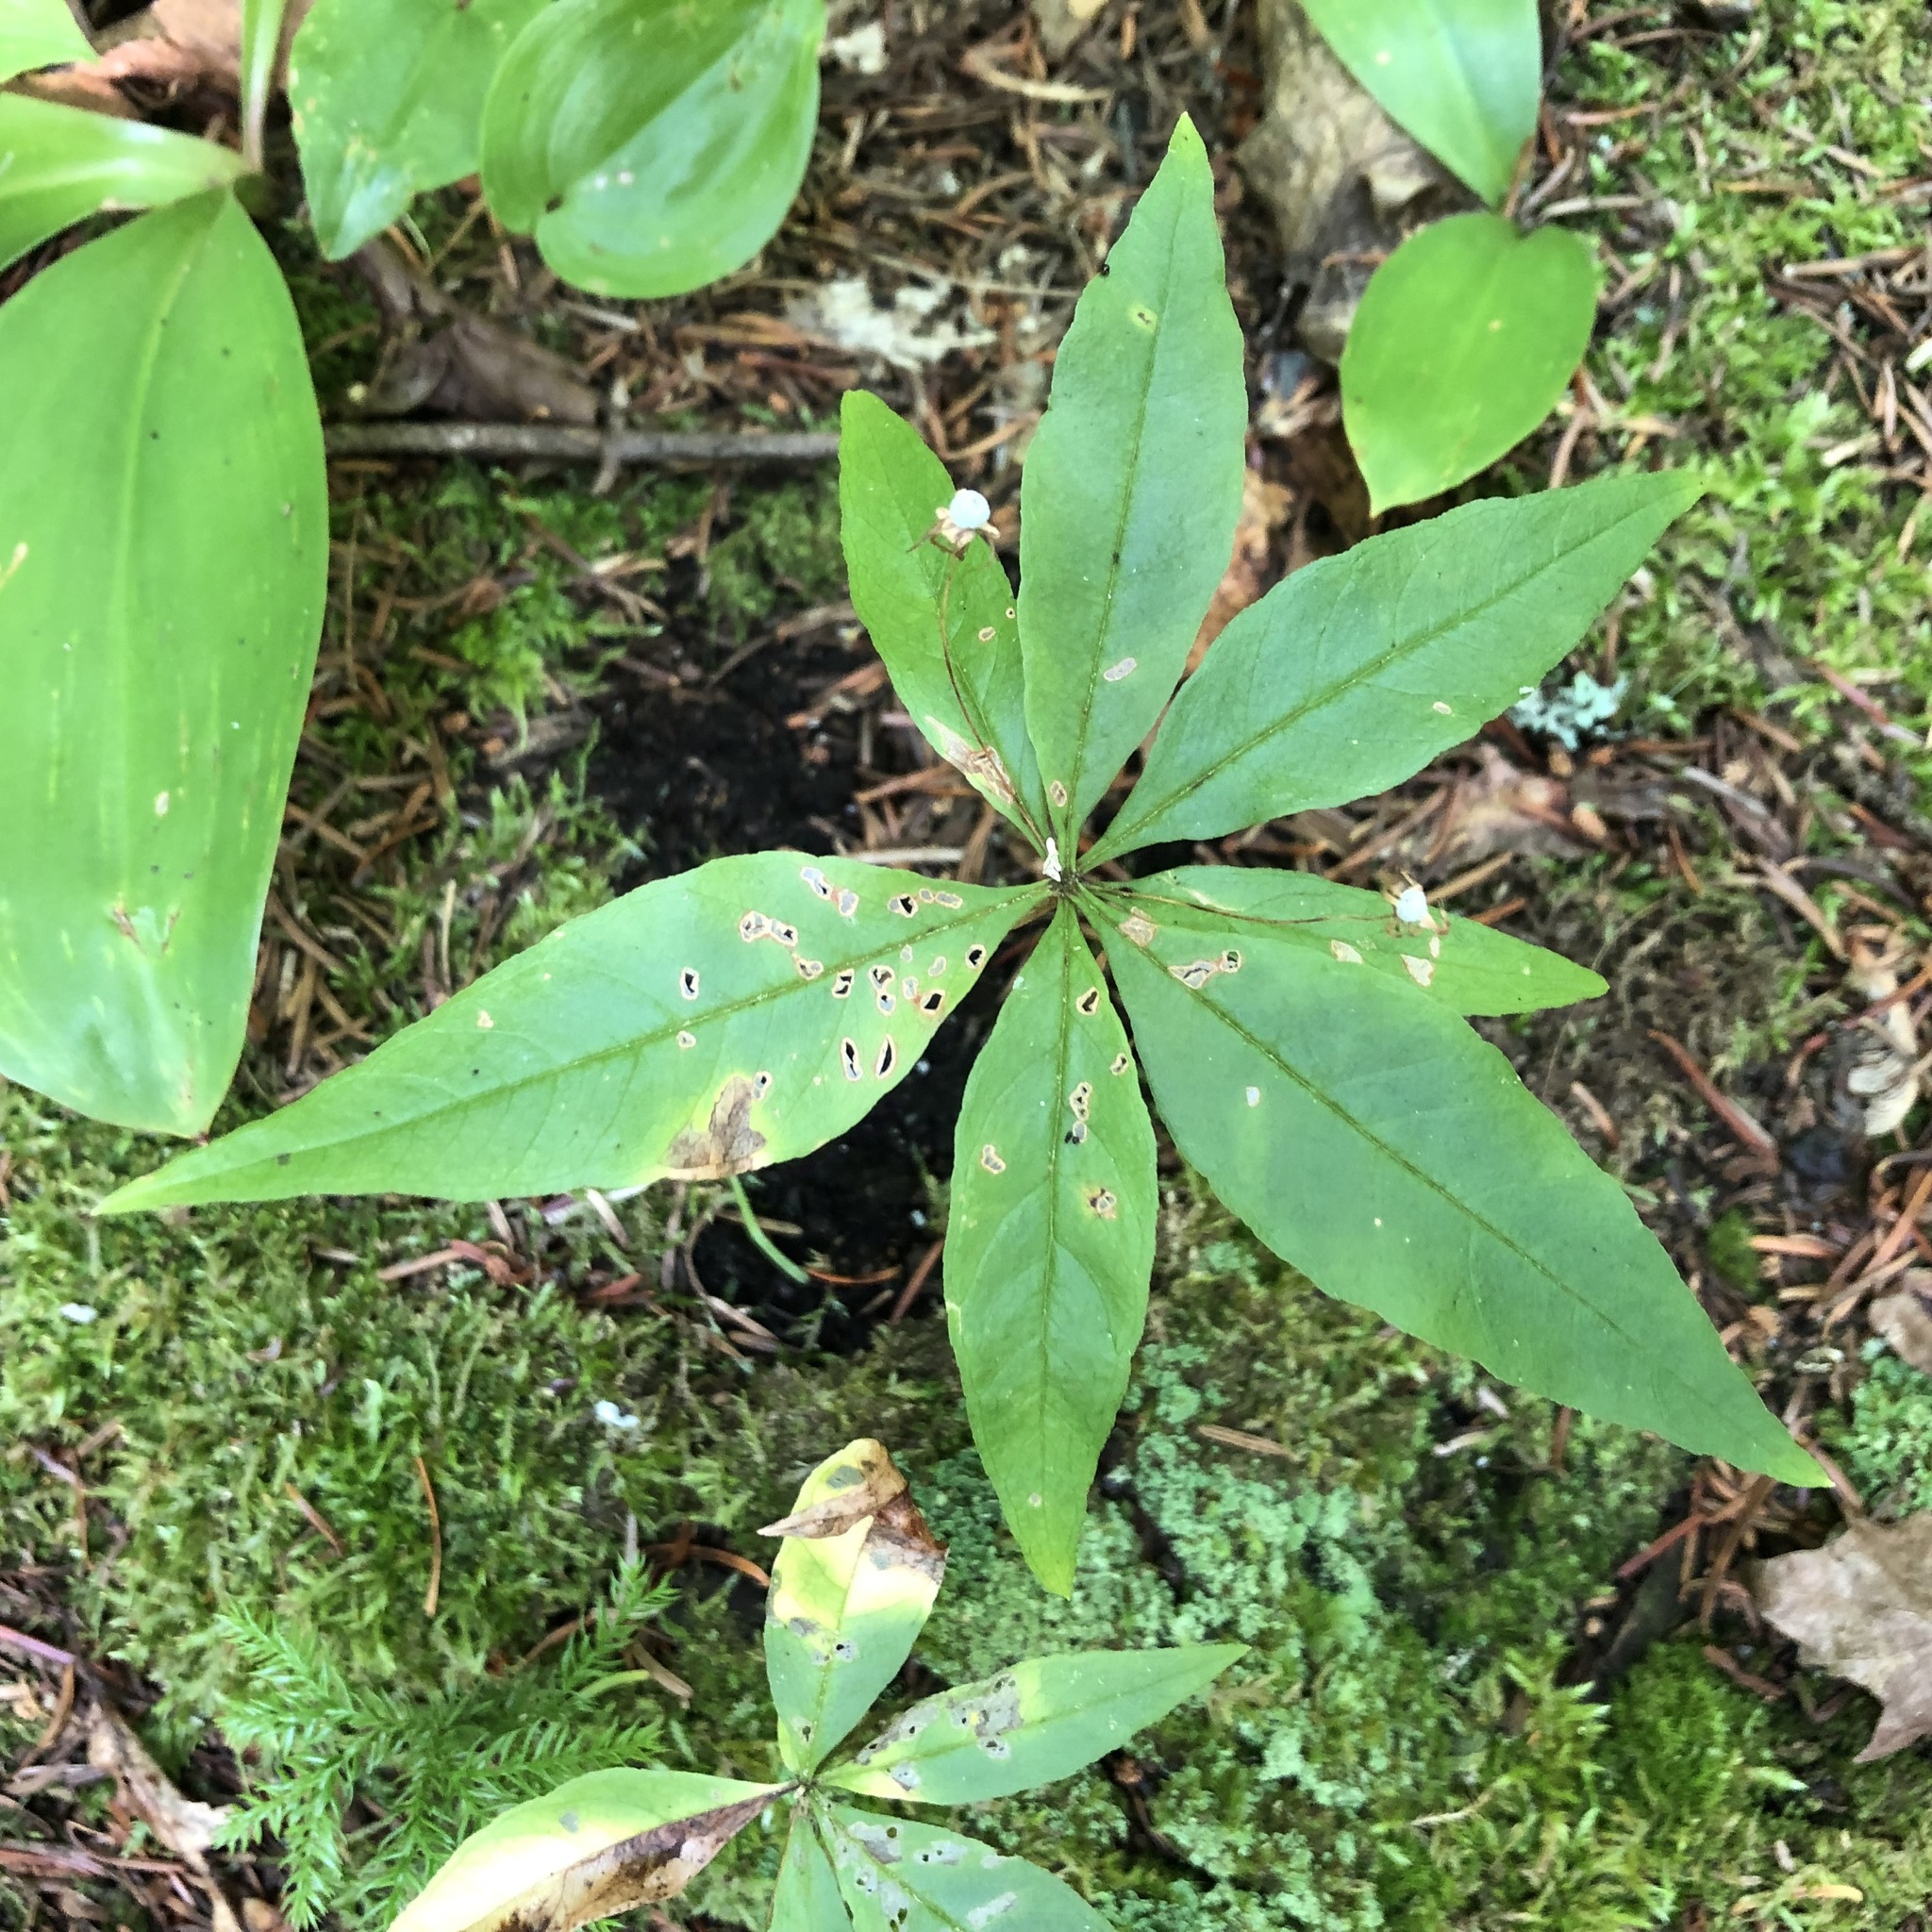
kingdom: Plantae
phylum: Tracheophyta
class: Magnoliopsida
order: Ericales
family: Primulaceae
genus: Lysimachia
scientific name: Lysimachia borealis
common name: American starflower
